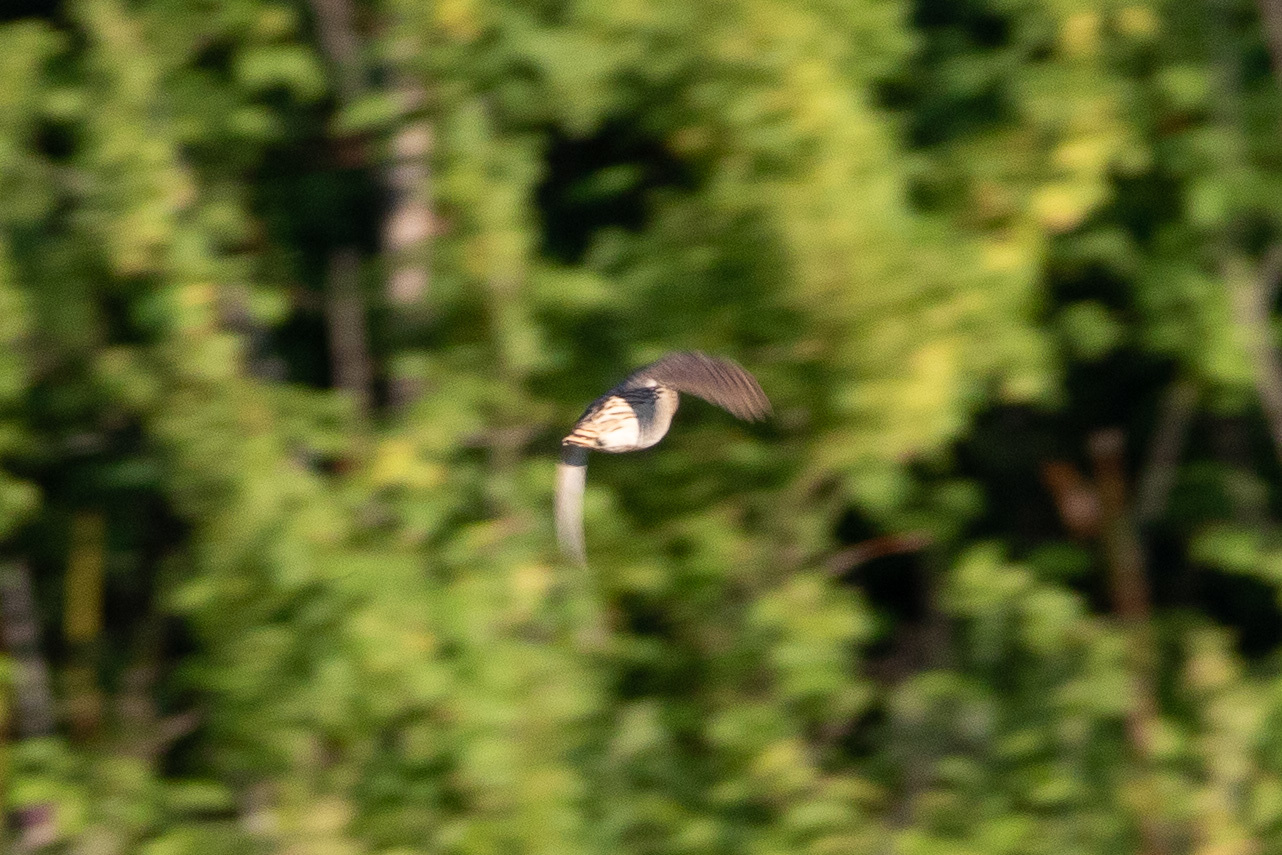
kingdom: Animalia
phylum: Chordata
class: Aves
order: Galliformes
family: Phasianidae
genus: Coturnix
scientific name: Coturnix coturnix
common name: Common quail
